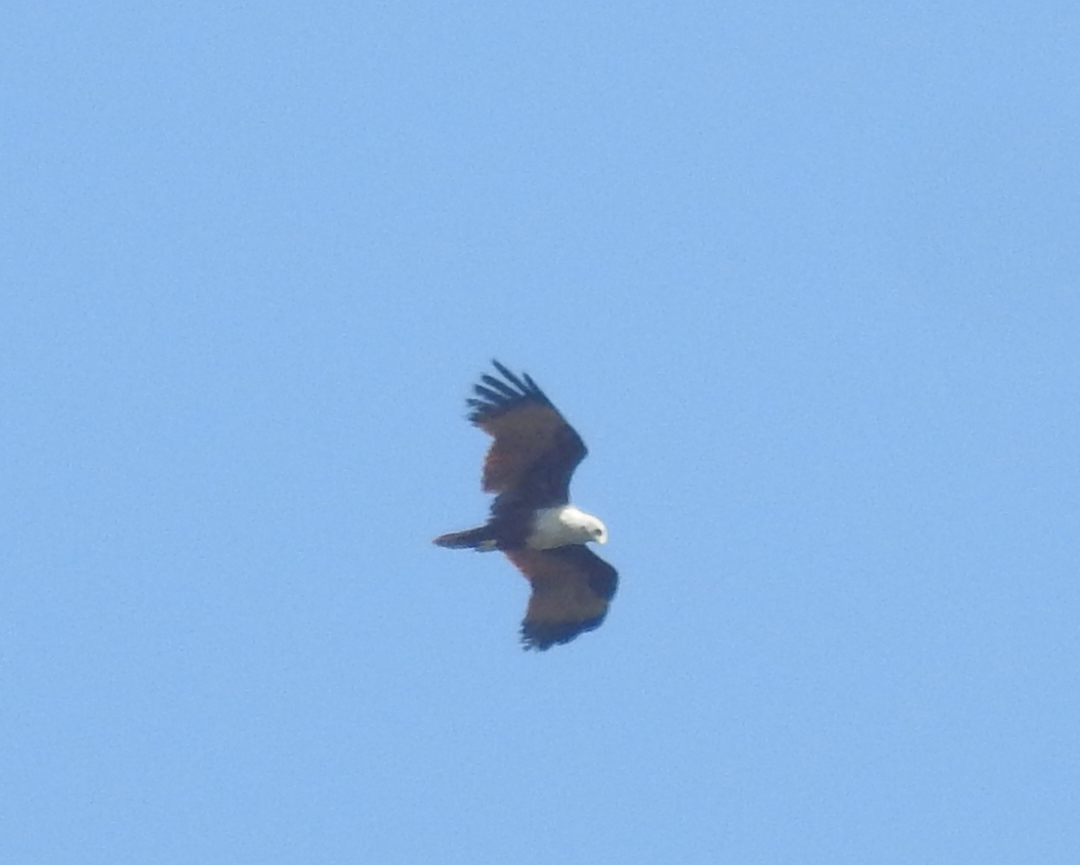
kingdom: Animalia
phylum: Chordata
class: Aves
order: Accipitriformes
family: Accipitridae
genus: Haliastur
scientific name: Haliastur indus
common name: Brahminy kite
